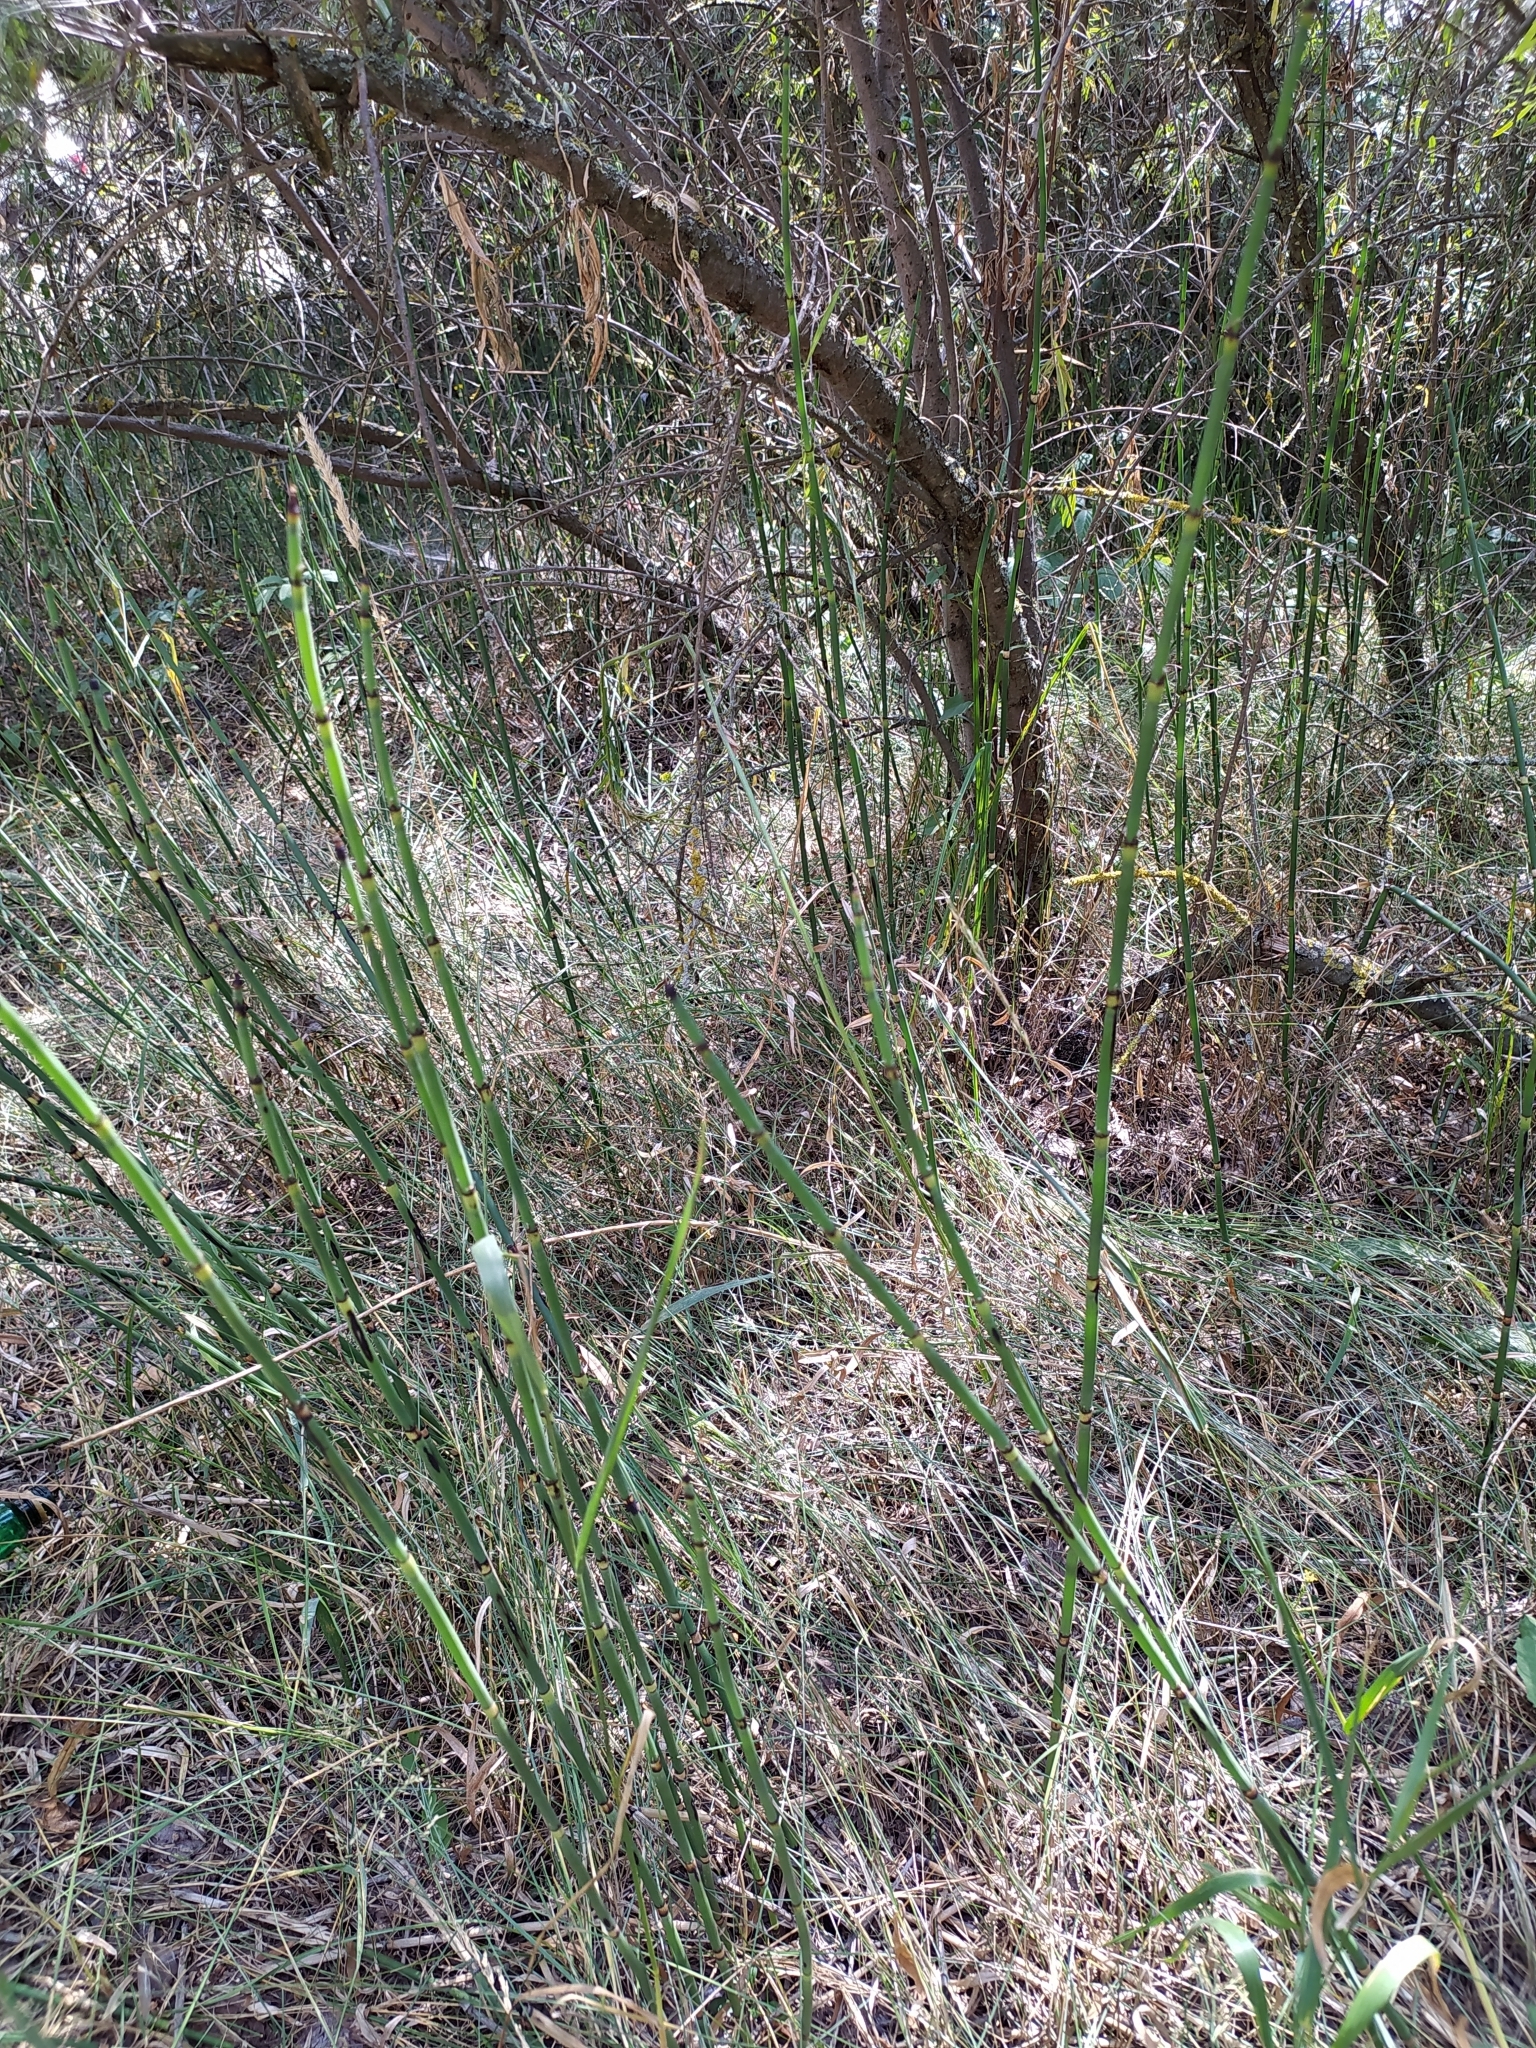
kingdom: Plantae
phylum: Tracheophyta
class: Polypodiopsida
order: Equisetales
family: Equisetaceae
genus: Equisetum
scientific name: Equisetum hyemale
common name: Rough horsetail
